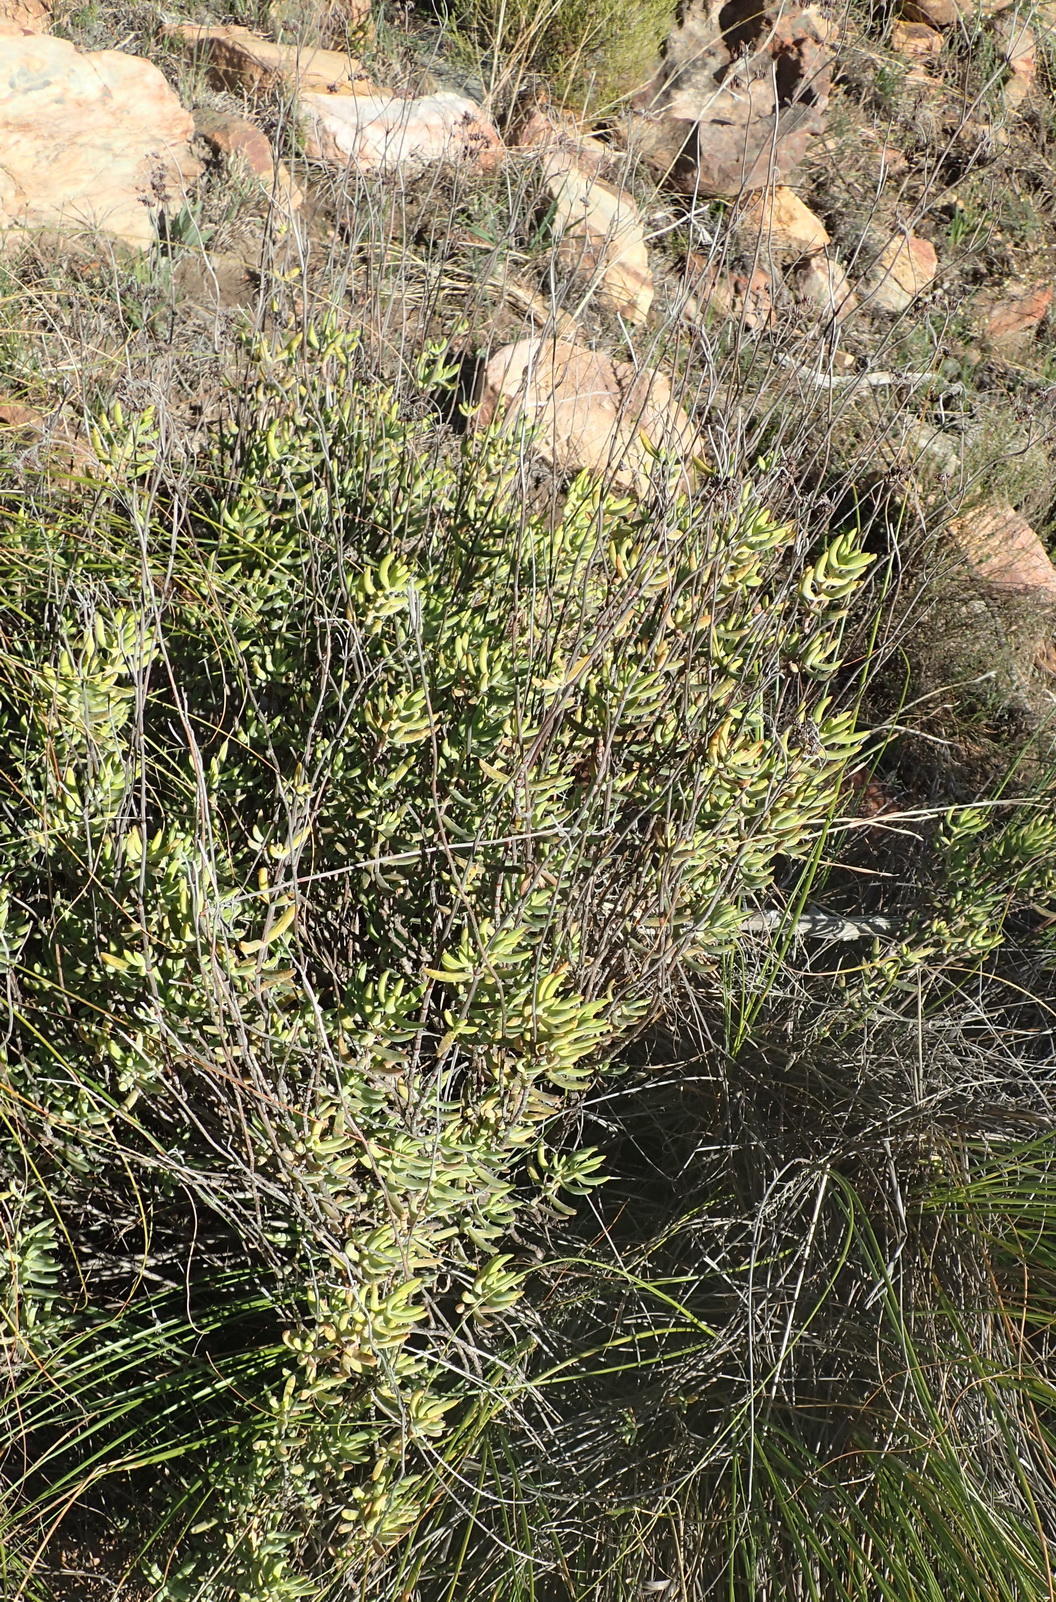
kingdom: Plantae
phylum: Tracheophyta
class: Magnoliopsida
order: Saxifragales
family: Crassulaceae
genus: Crassula
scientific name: Crassula mollis
